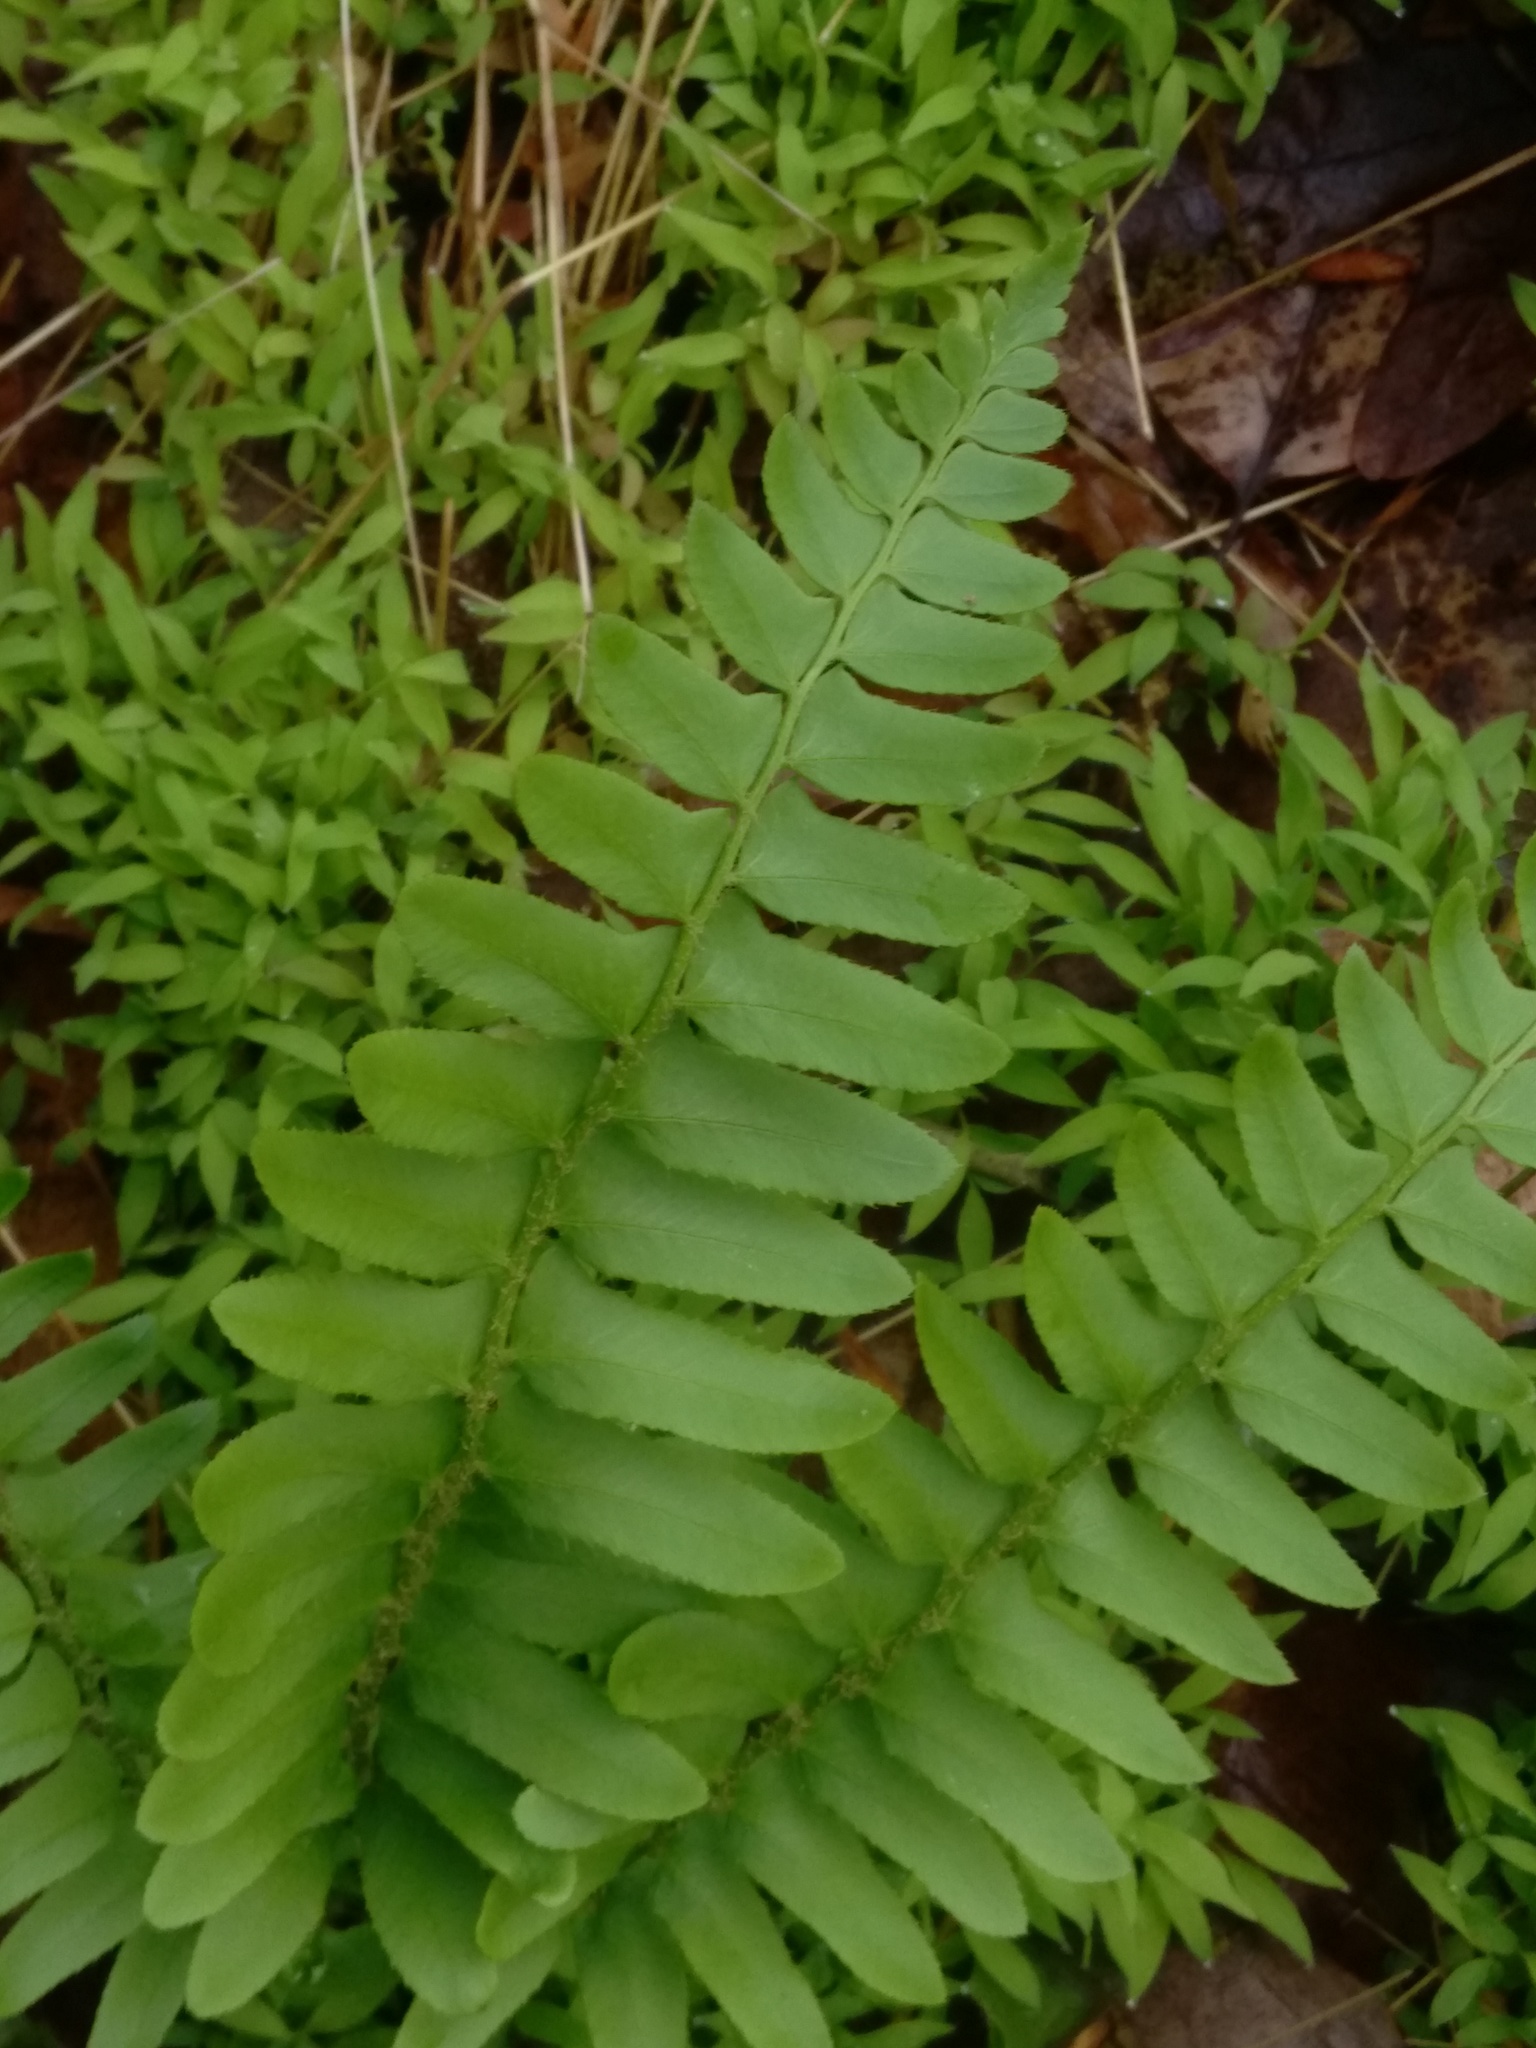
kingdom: Plantae
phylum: Tracheophyta
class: Polypodiopsida
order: Polypodiales
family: Dryopteridaceae
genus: Polystichum
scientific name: Polystichum acrostichoides
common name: Christmas fern
